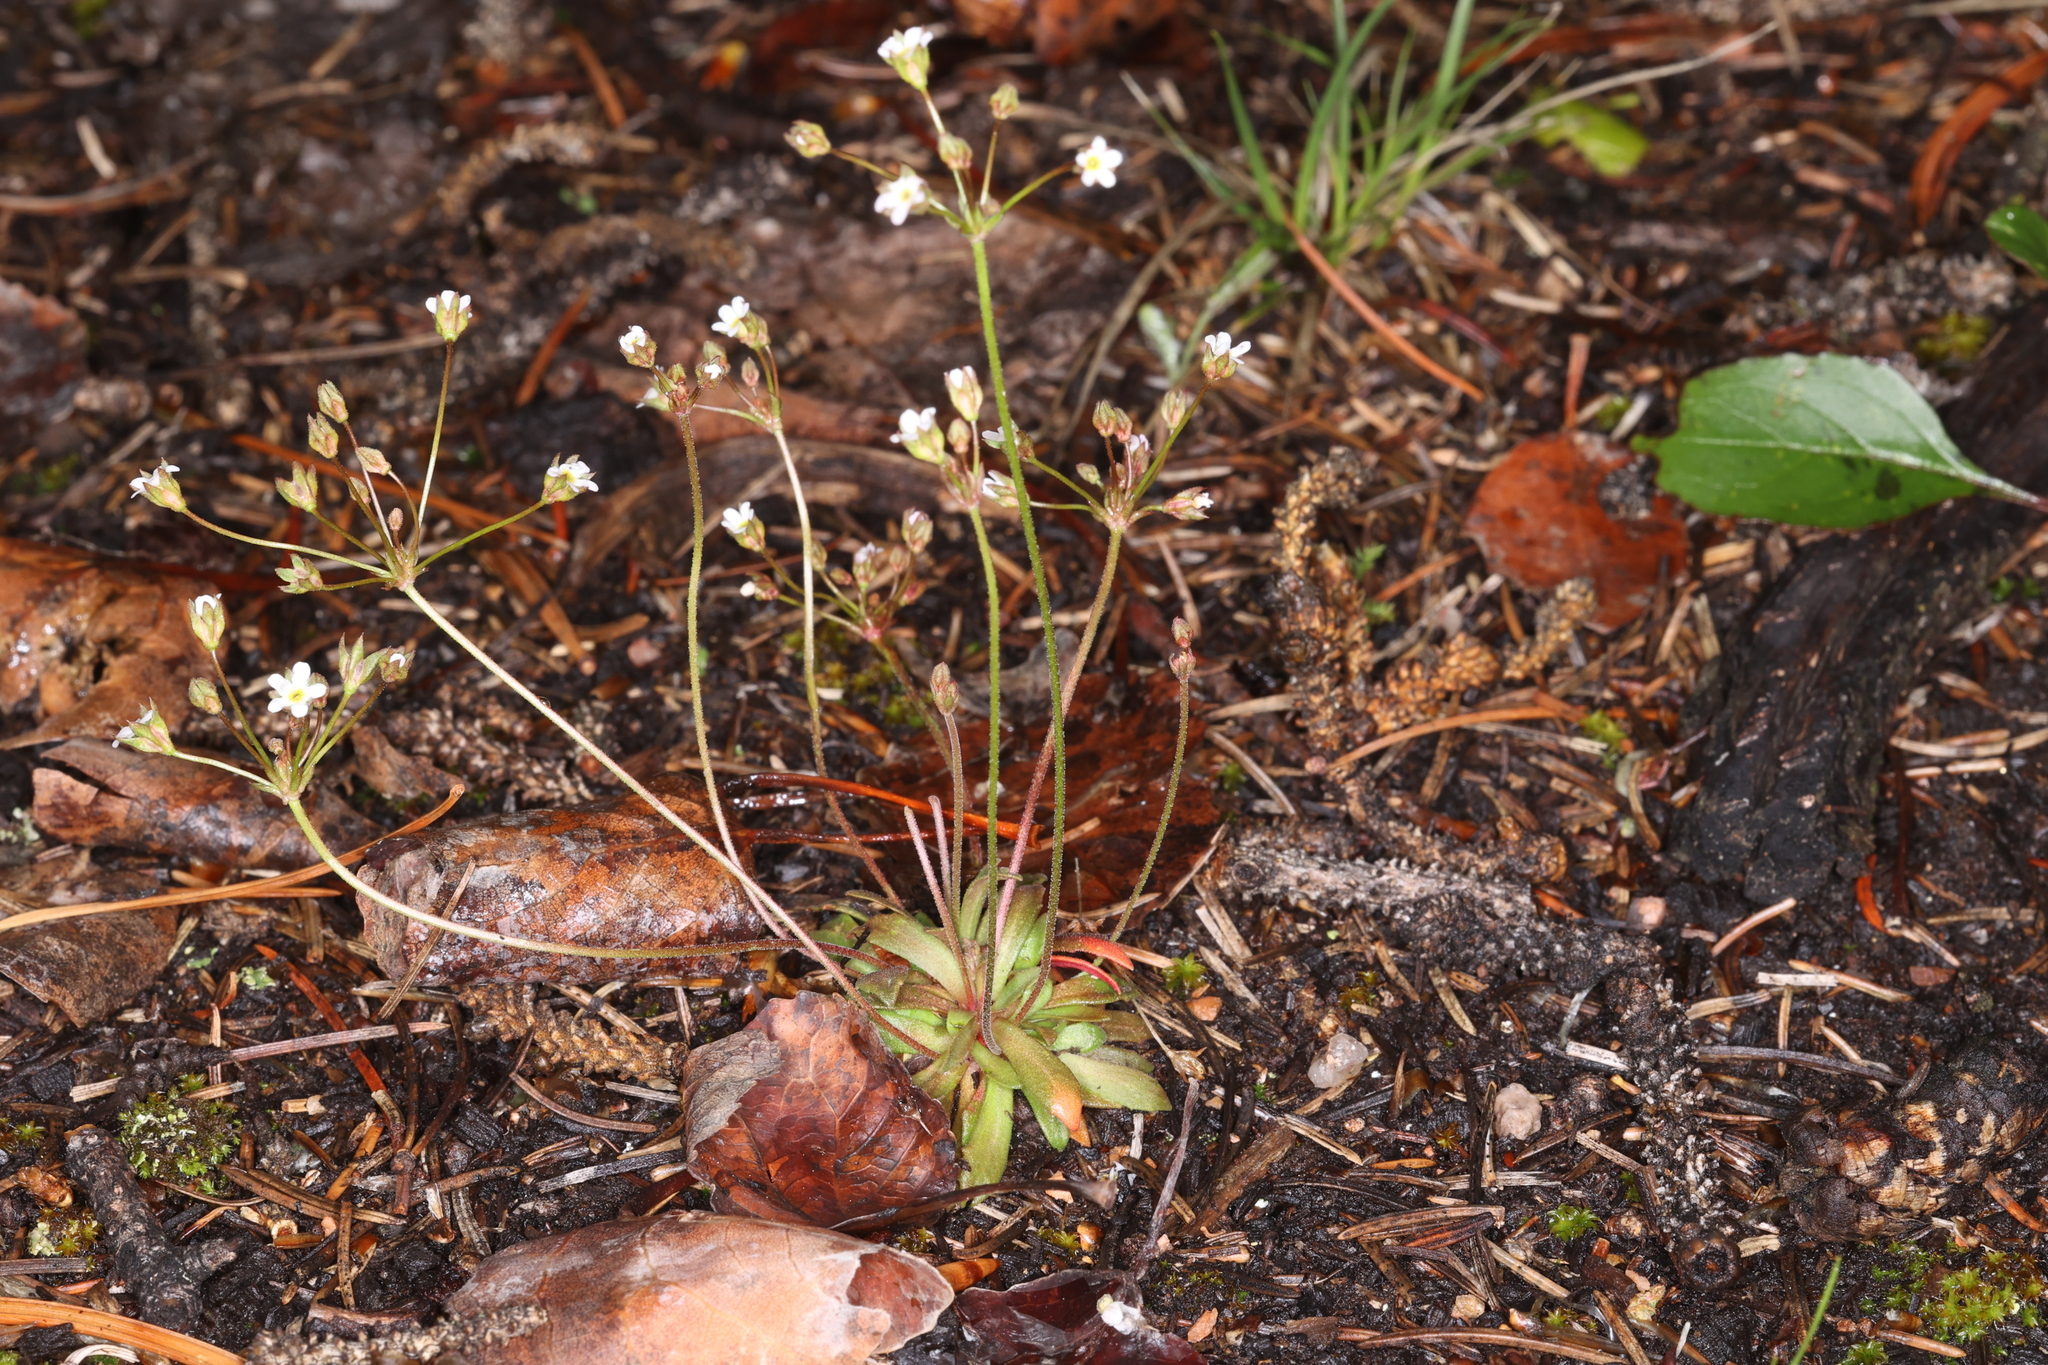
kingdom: Plantae
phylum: Tracheophyta
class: Magnoliopsida
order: Ericales
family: Primulaceae
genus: Androsace
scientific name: Androsace septentrionalis
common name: Hairy northern fairy-candelabra
